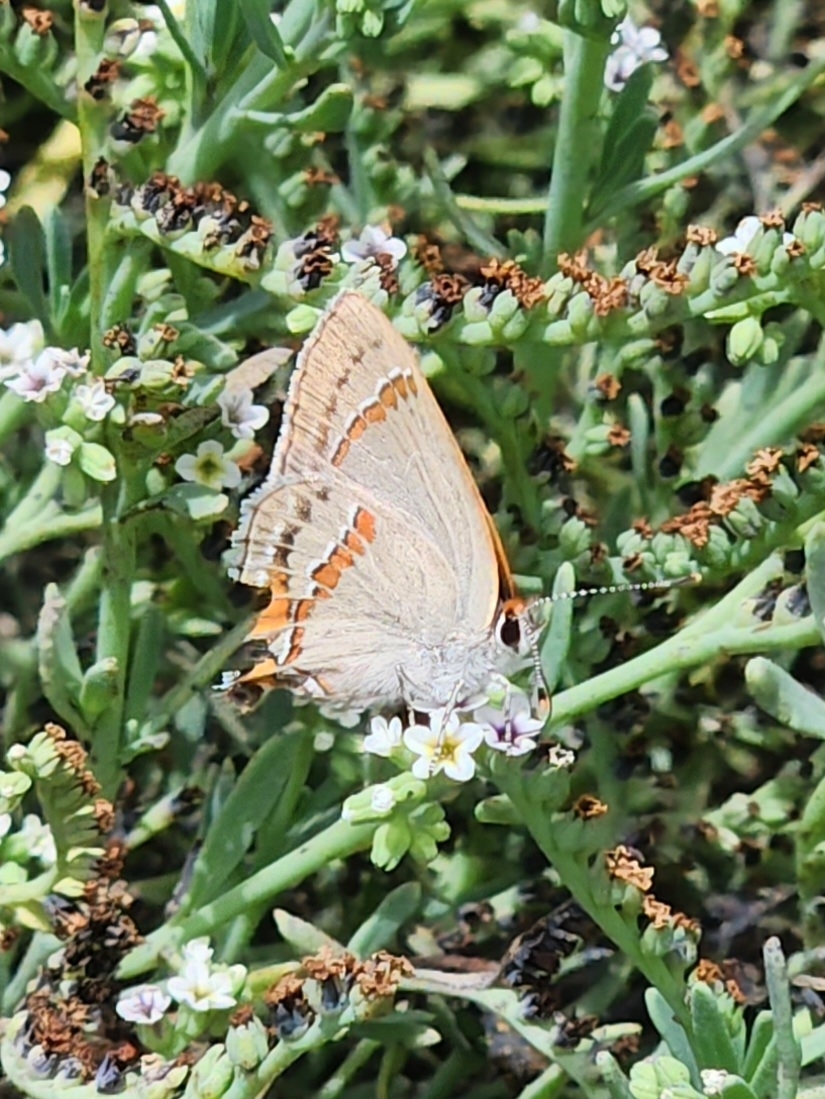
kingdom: Animalia
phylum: Arthropoda
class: Insecta
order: Lepidoptera
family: Lycaenidae
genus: Strymon
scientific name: Strymon melinus
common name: Gray hairstreak
